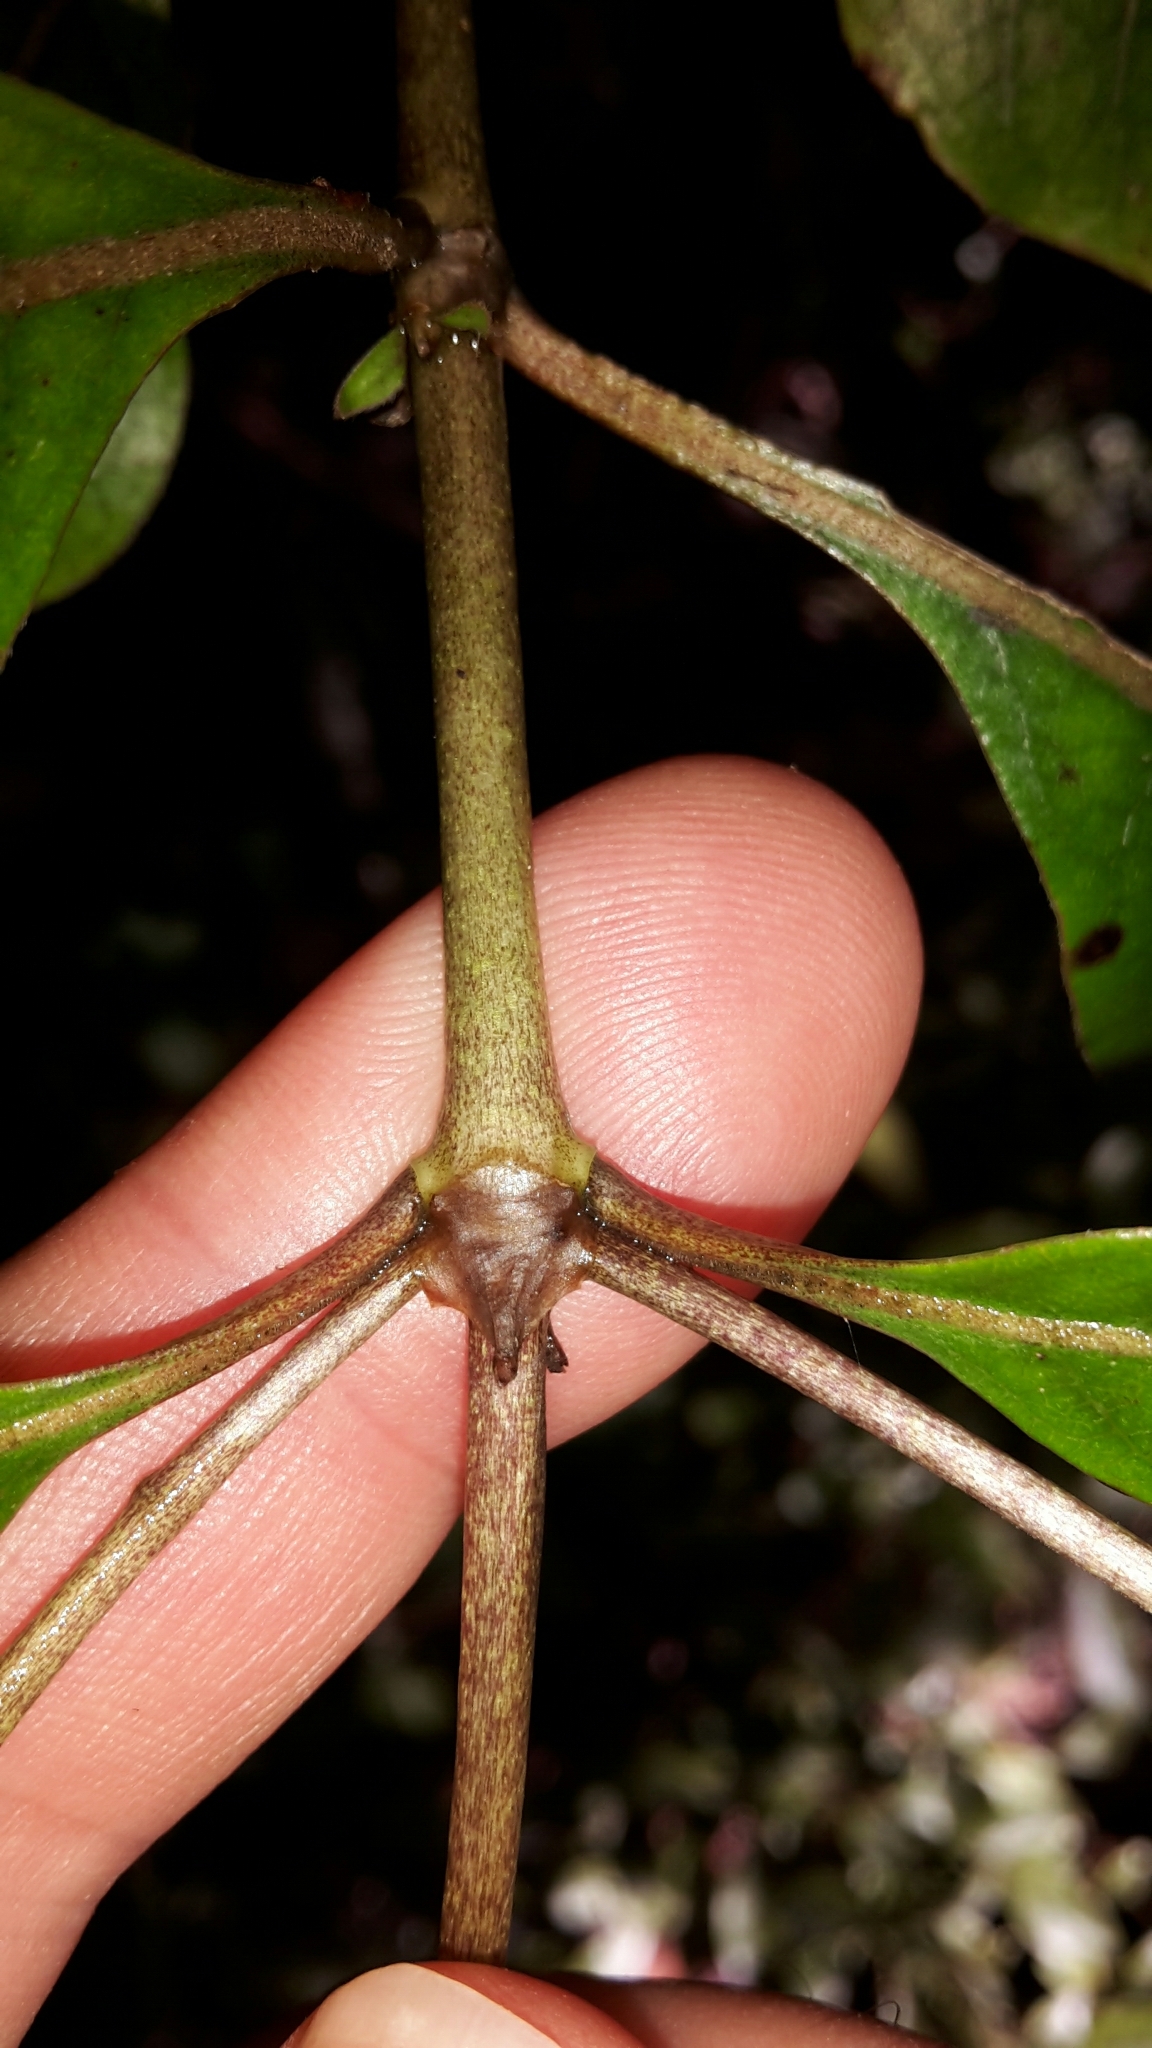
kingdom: Plantae
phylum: Tracheophyta
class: Magnoliopsida
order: Gentianales
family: Rubiaceae
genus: Coprosma
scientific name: Coprosma tenuifolia
